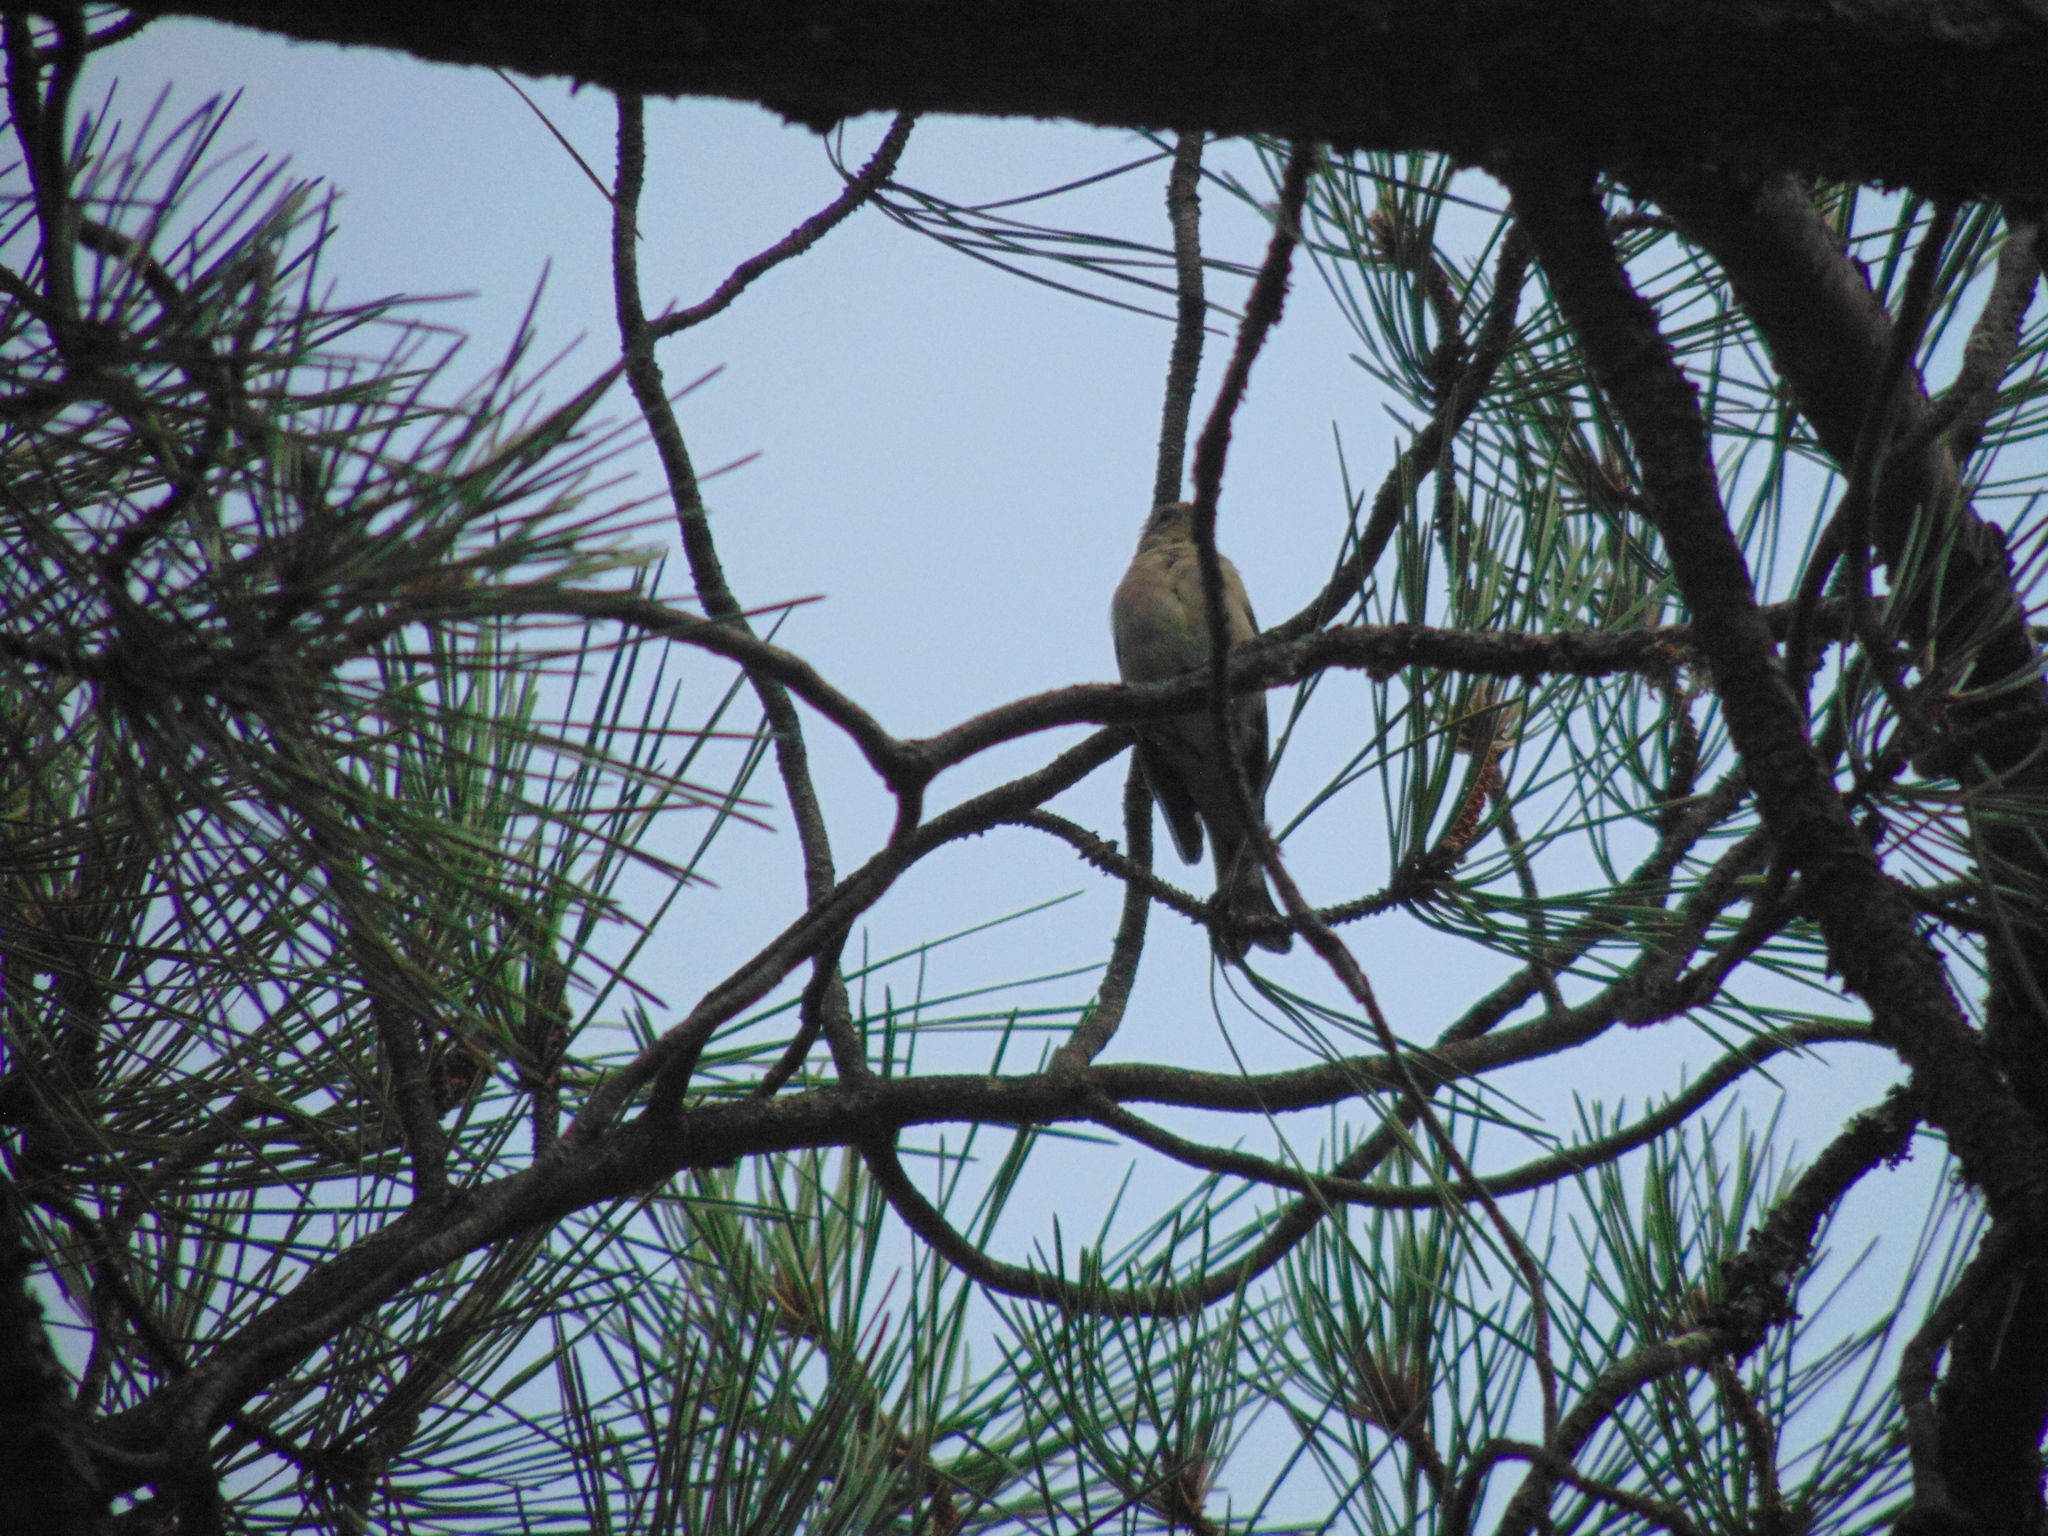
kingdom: Animalia
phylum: Chordata
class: Aves
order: Passeriformes
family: Fringillidae
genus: Fringilla
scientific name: Fringilla coelebs
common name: Common chaffinch
